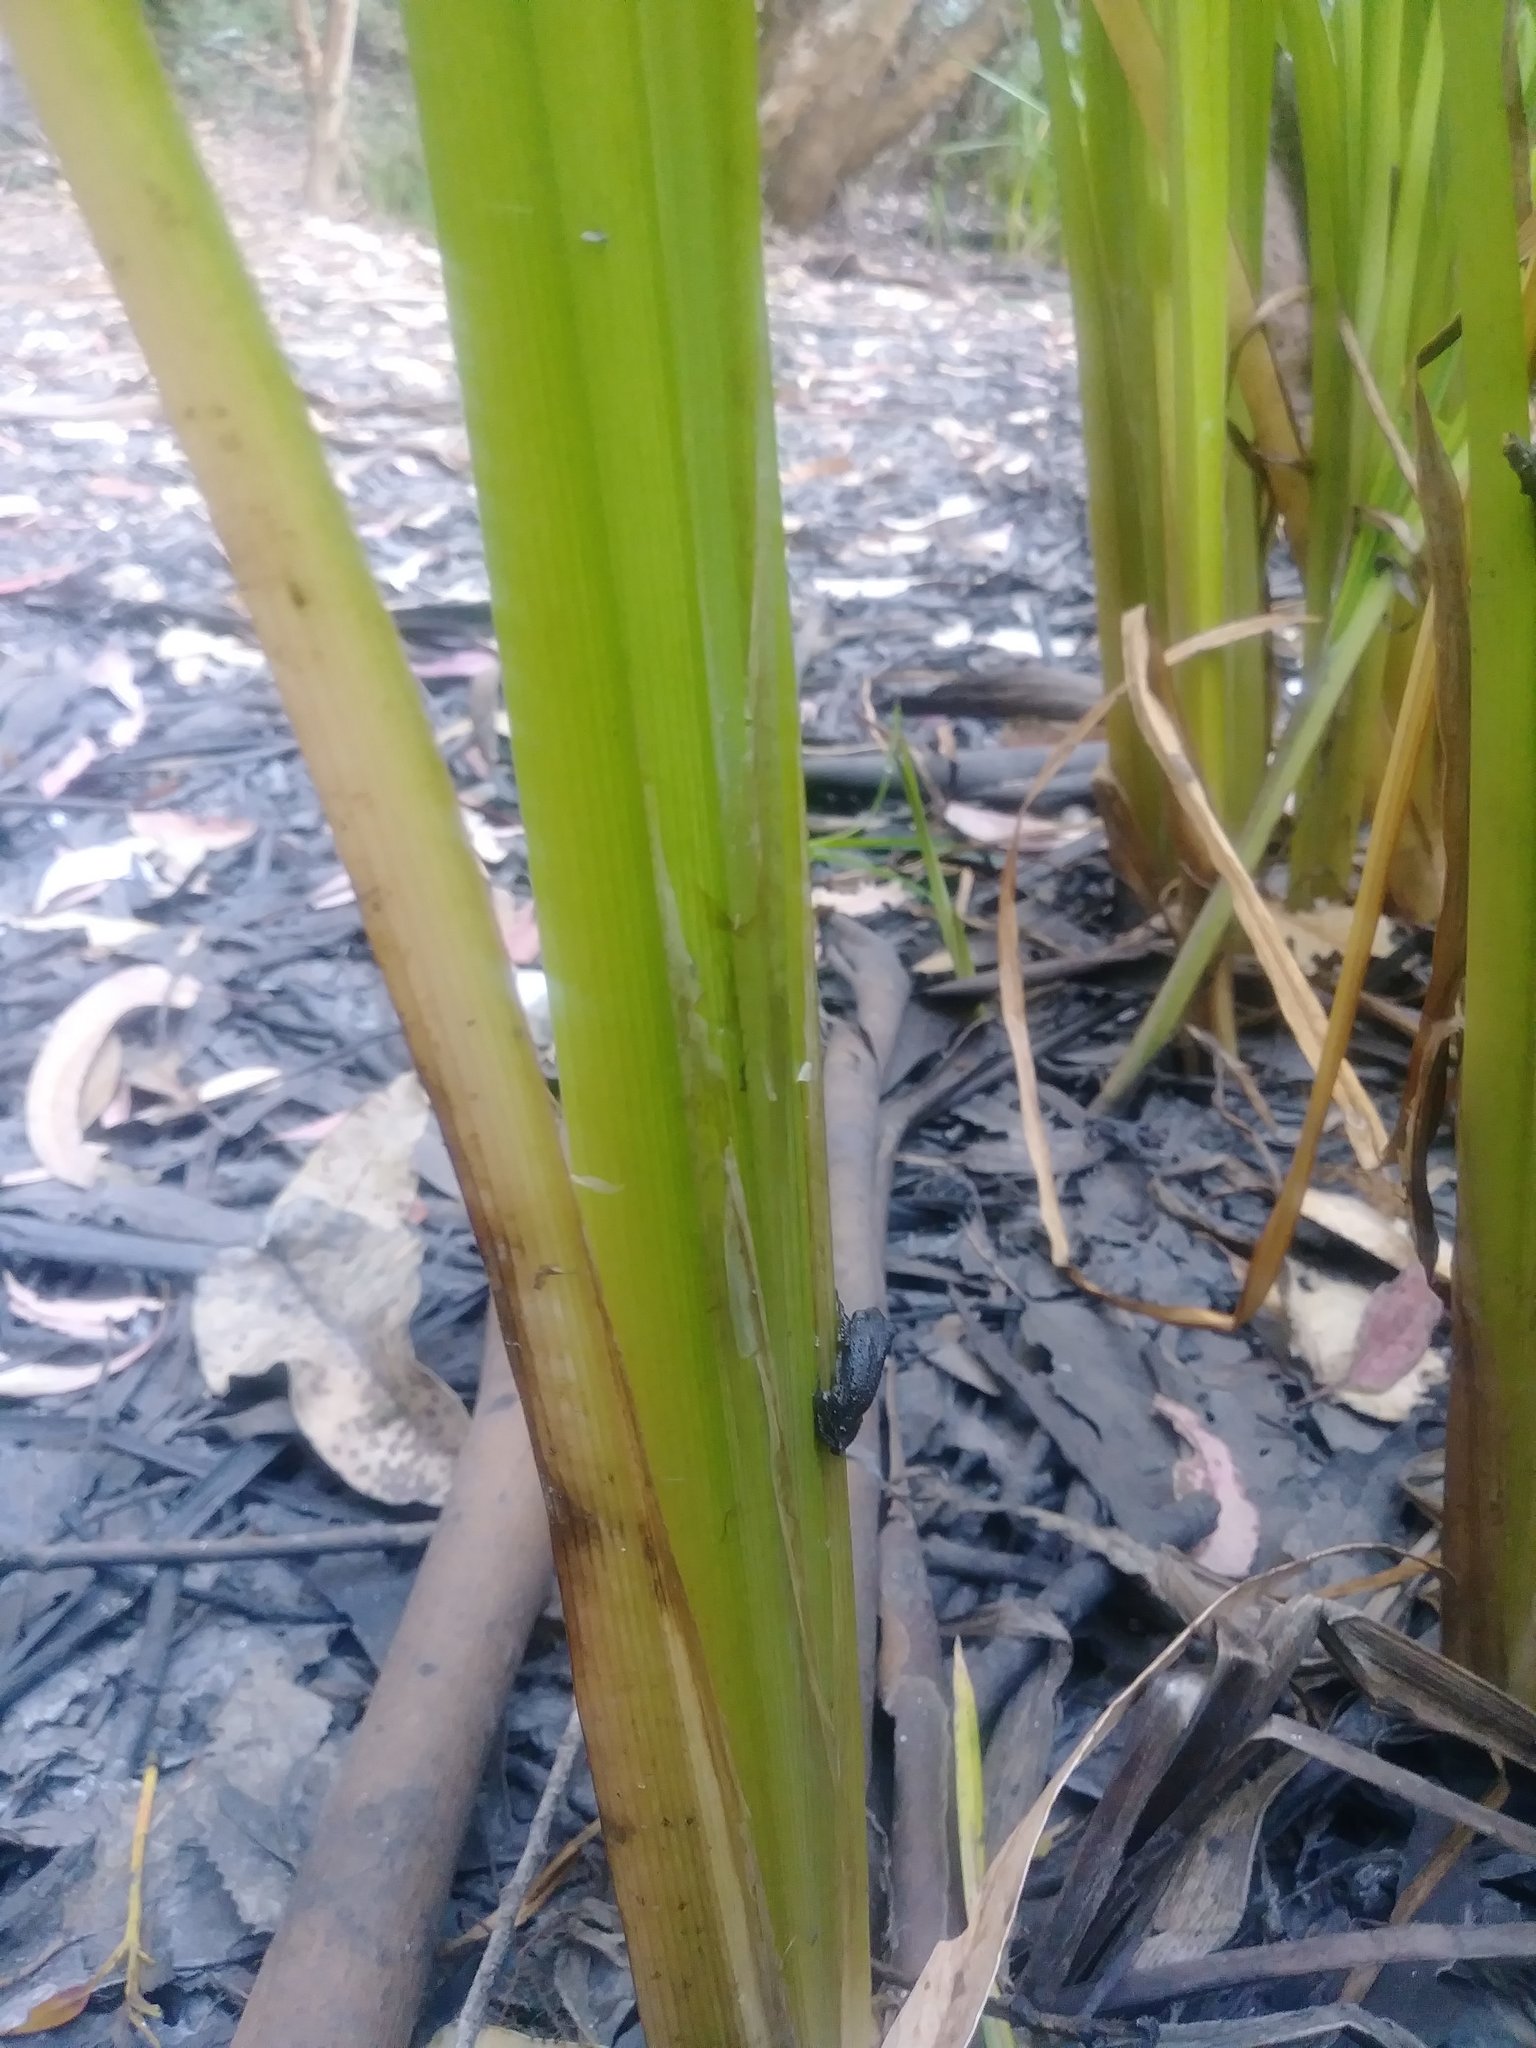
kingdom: Animalia
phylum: Chordata
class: Amphibia
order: Anura
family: Hylidae
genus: Pseudacris
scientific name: Pseudacris regilla
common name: Pacific chorus frog
